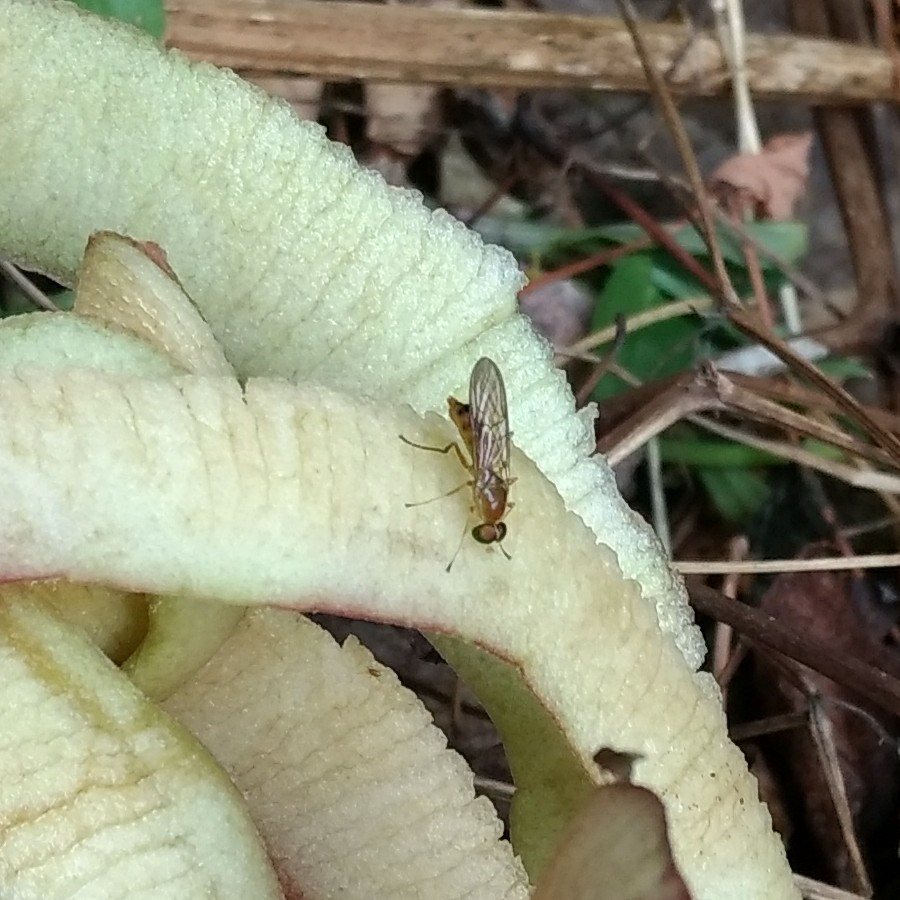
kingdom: Animalia
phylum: Arthropoda
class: Insecta
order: Diptera
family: Stratiomyidae
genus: Ptecticus
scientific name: Ptecticus trivittatus
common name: Compost fly
